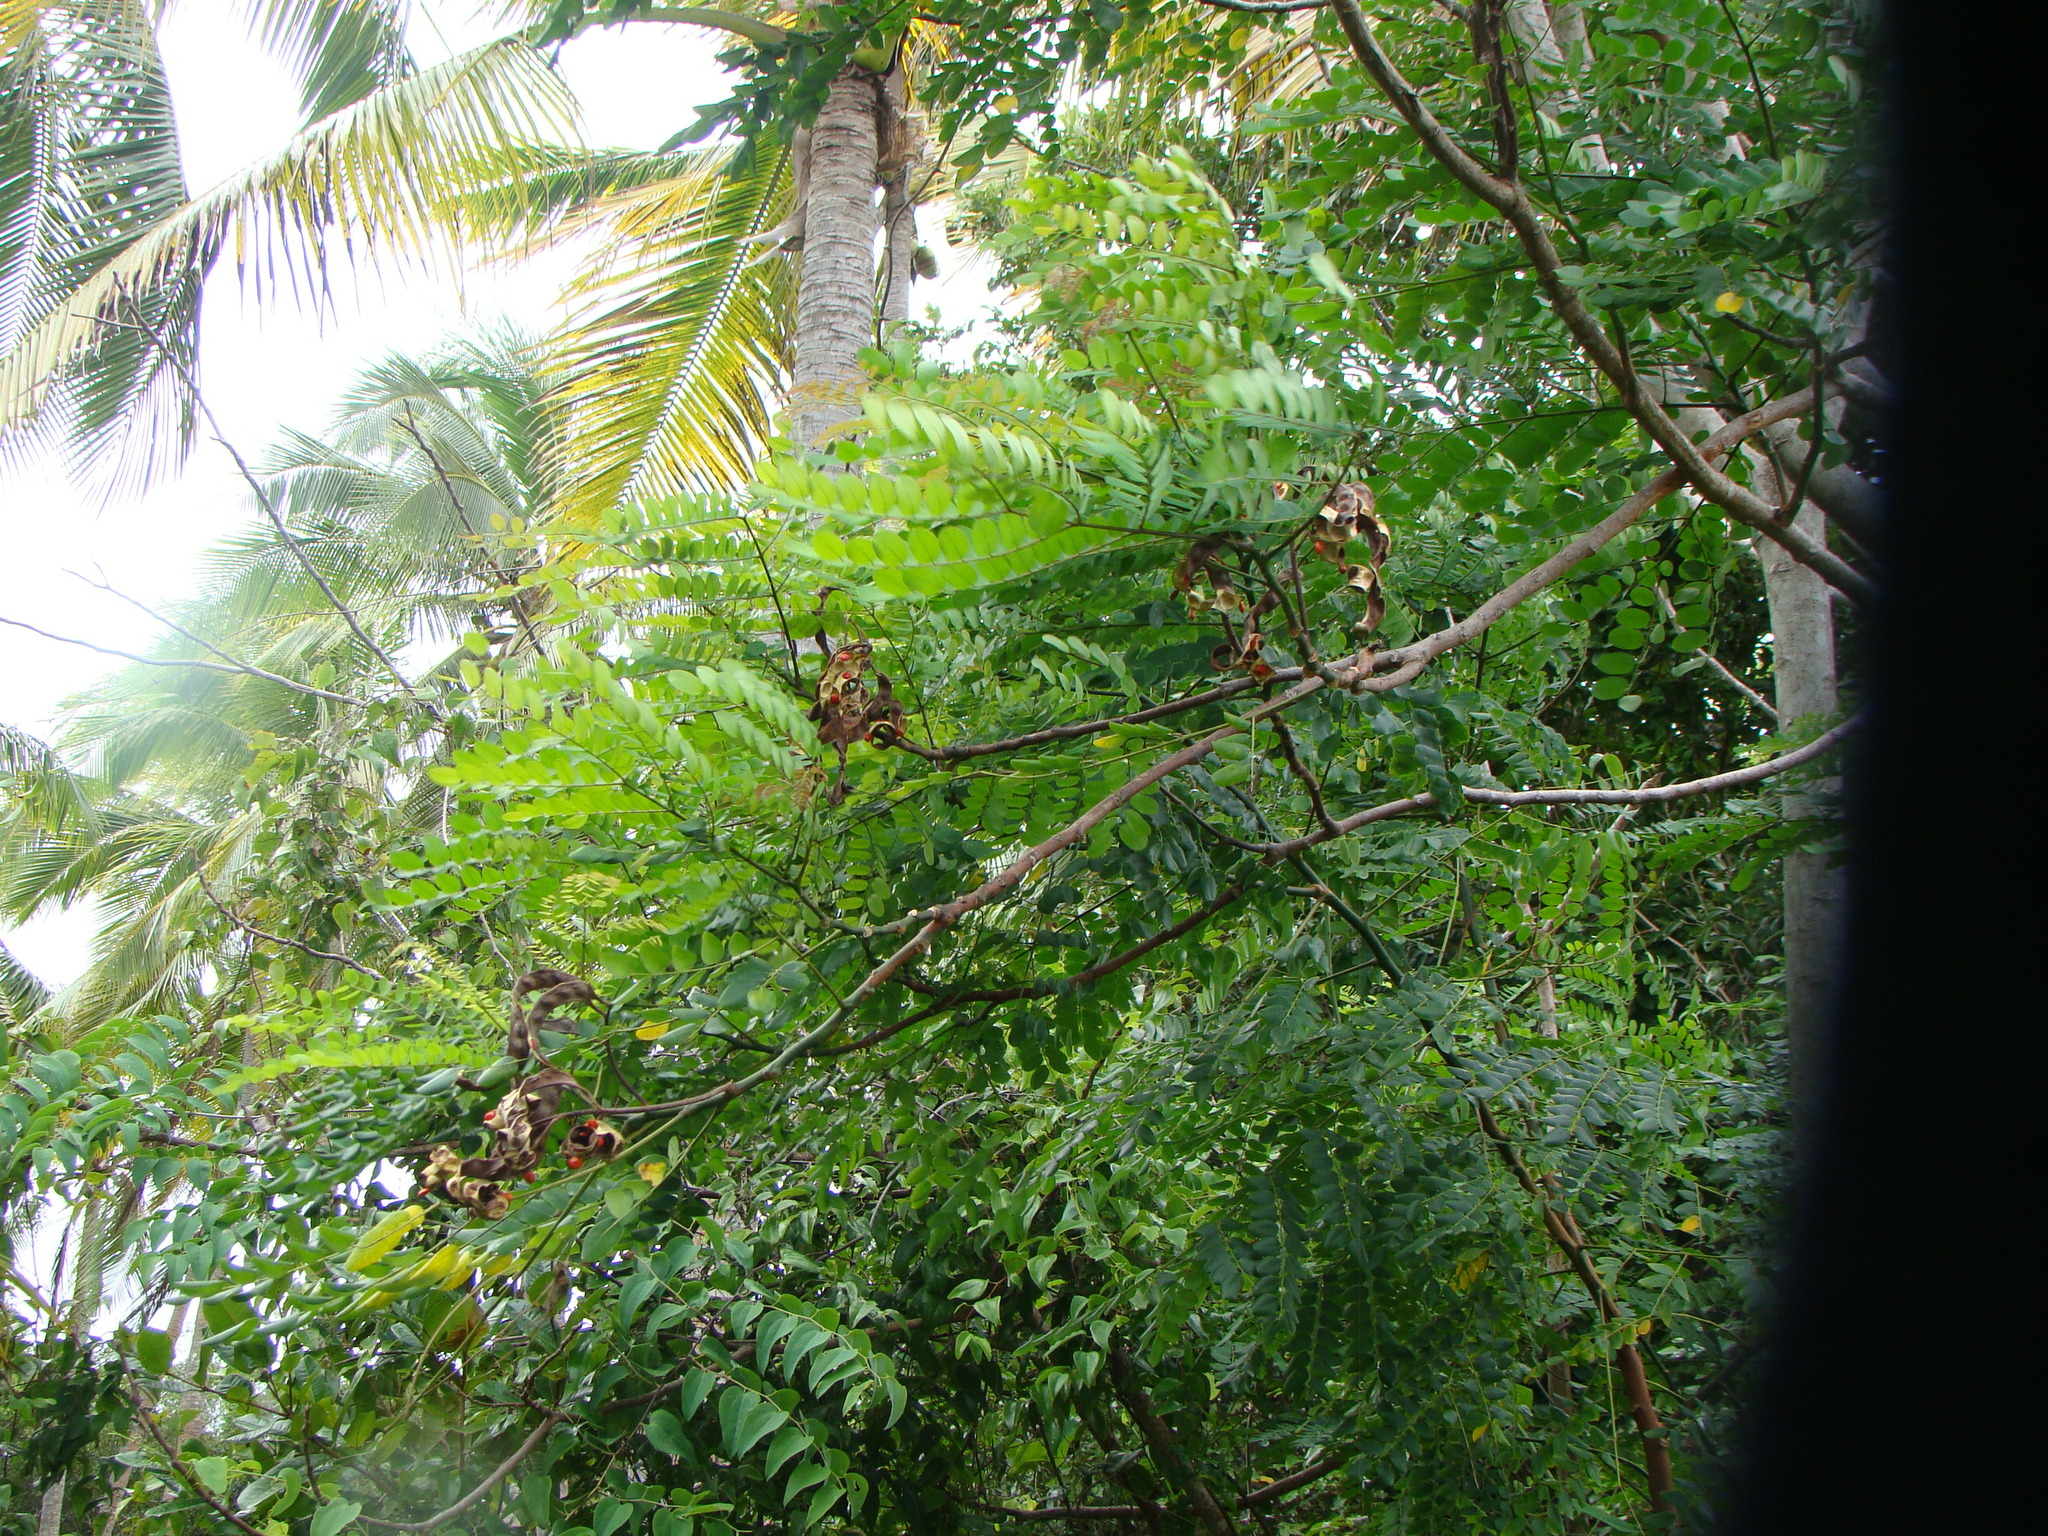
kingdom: Plantae
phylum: Tracheophyta
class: Magnoliopsida
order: Fabales
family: Fabaceae
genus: Adenanthera
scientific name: Adenanthera pavonina
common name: Red beadtree
